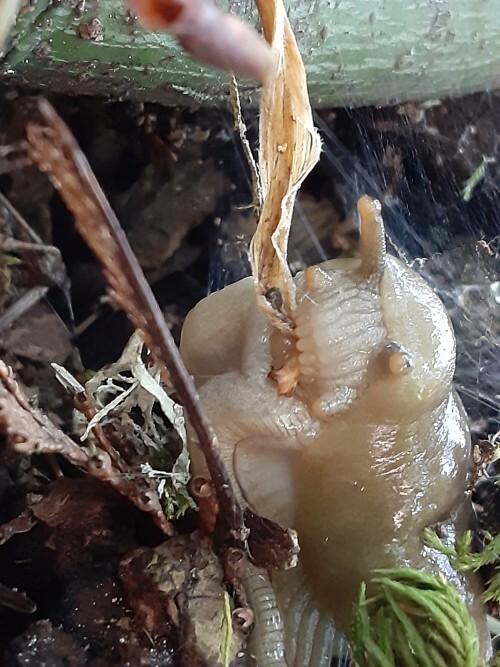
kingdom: Animalia
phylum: Mollusca
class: Gastropoda
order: Stylommatophora
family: Ariolimacidae
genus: Ariolimax
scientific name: Ariolimax columbianus
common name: Pacific banana slug
